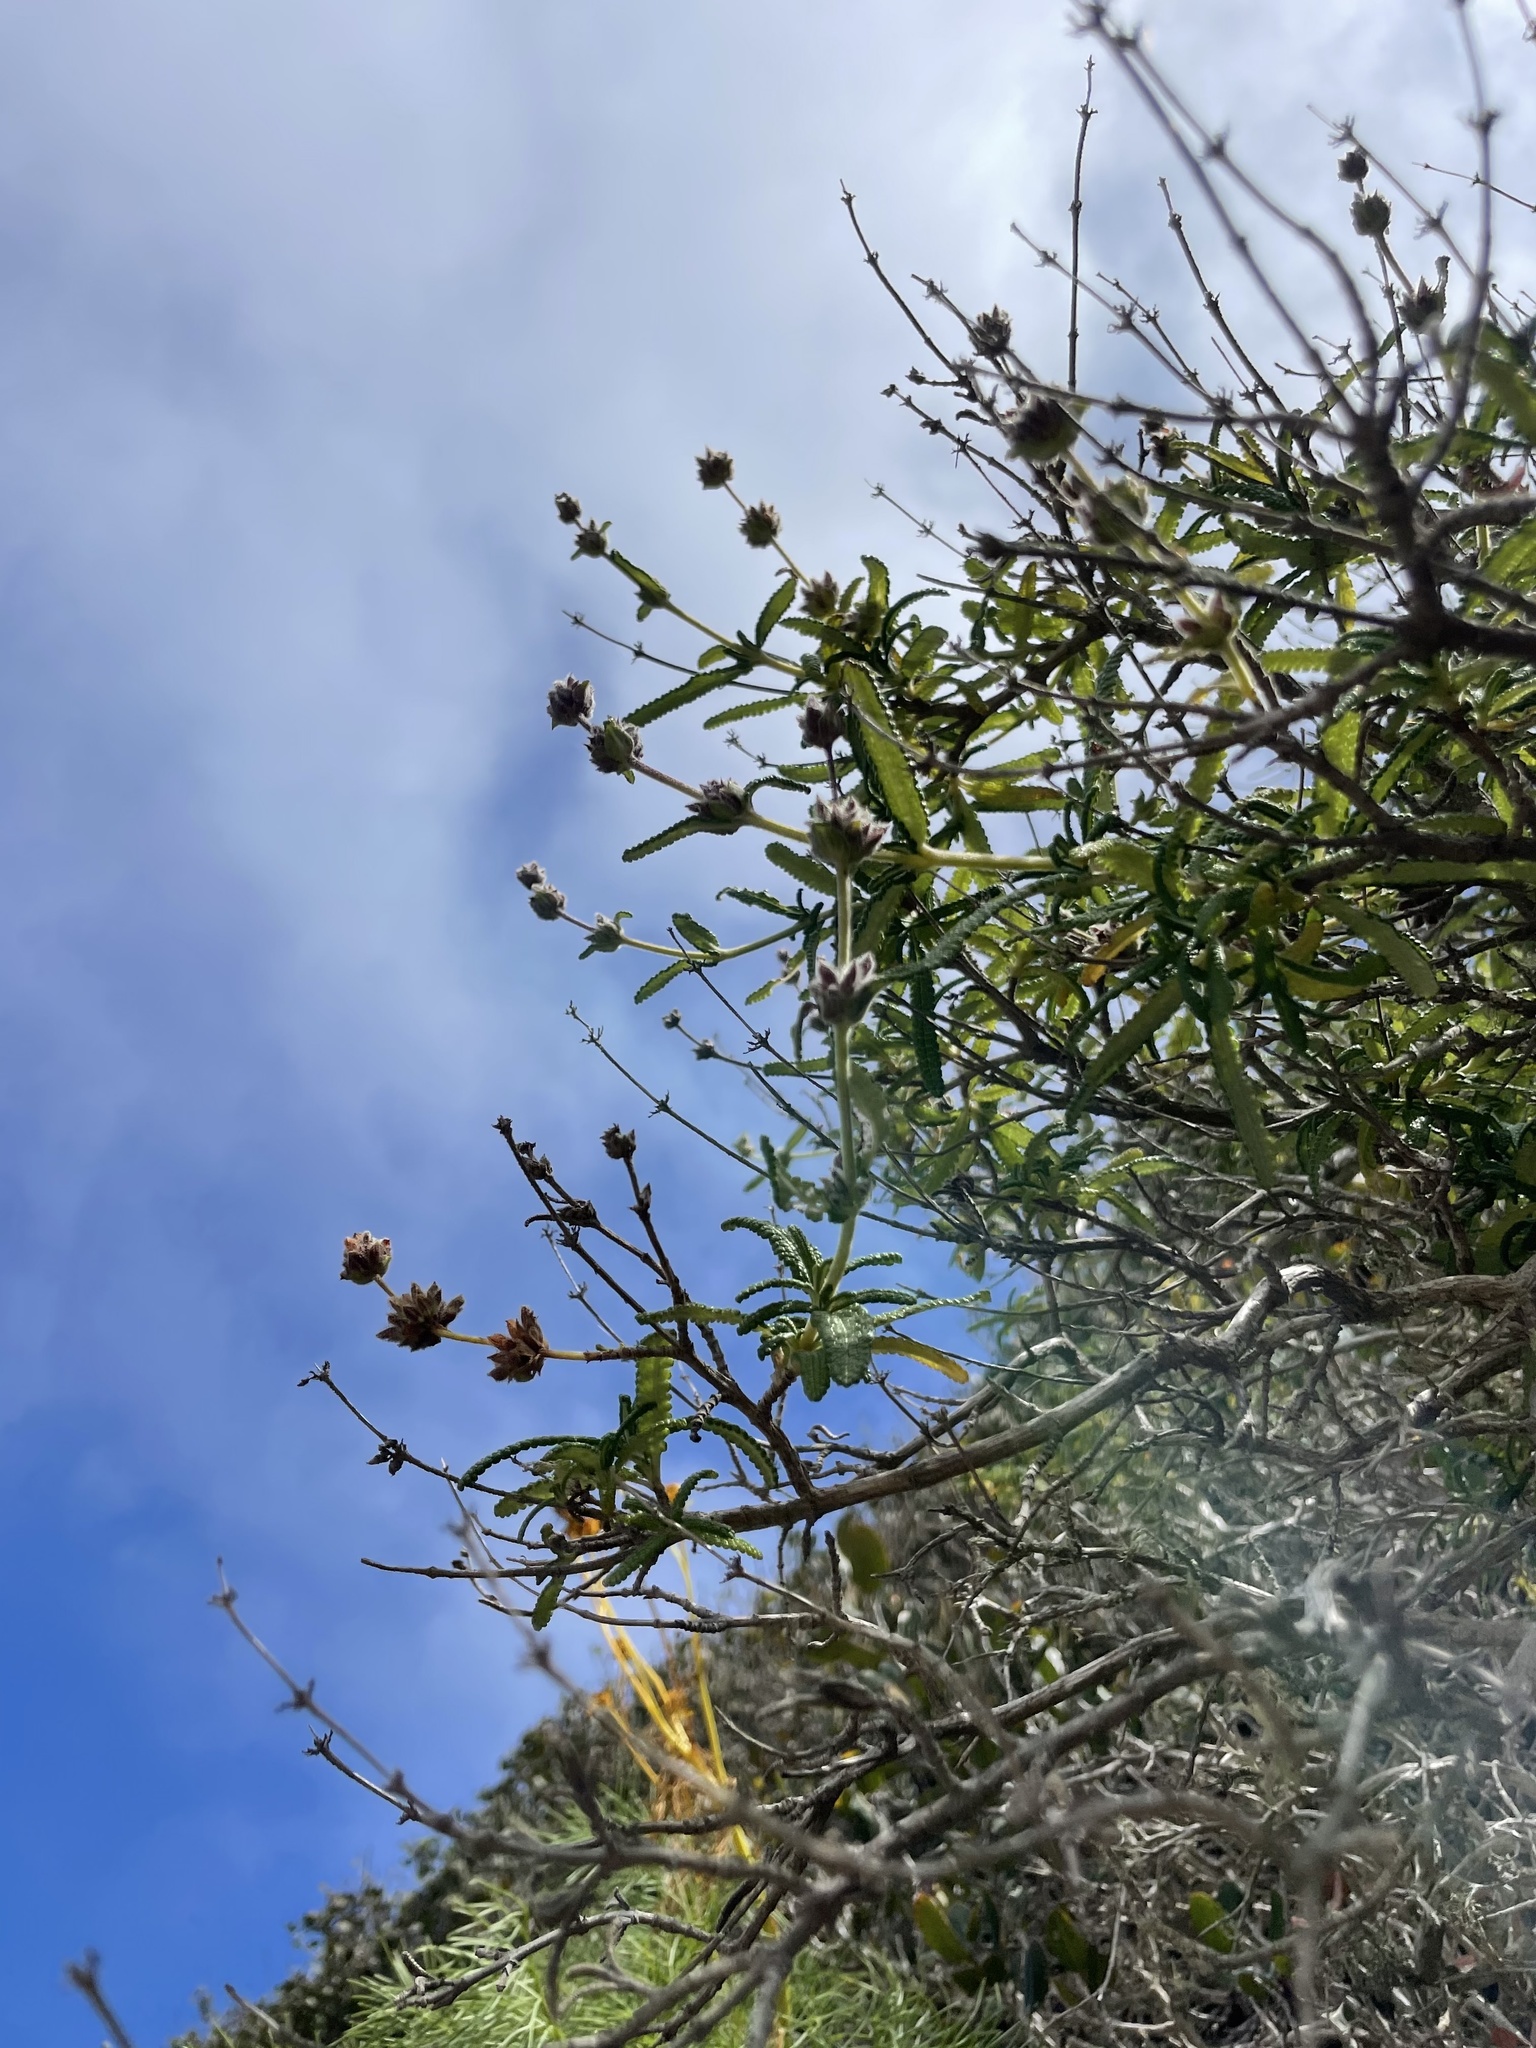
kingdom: Plantae
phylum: Tracheophyta
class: Magnoliopsida
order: Lamiales
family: Lamiaceae
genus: Salvia
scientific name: Salvia brandegeei
